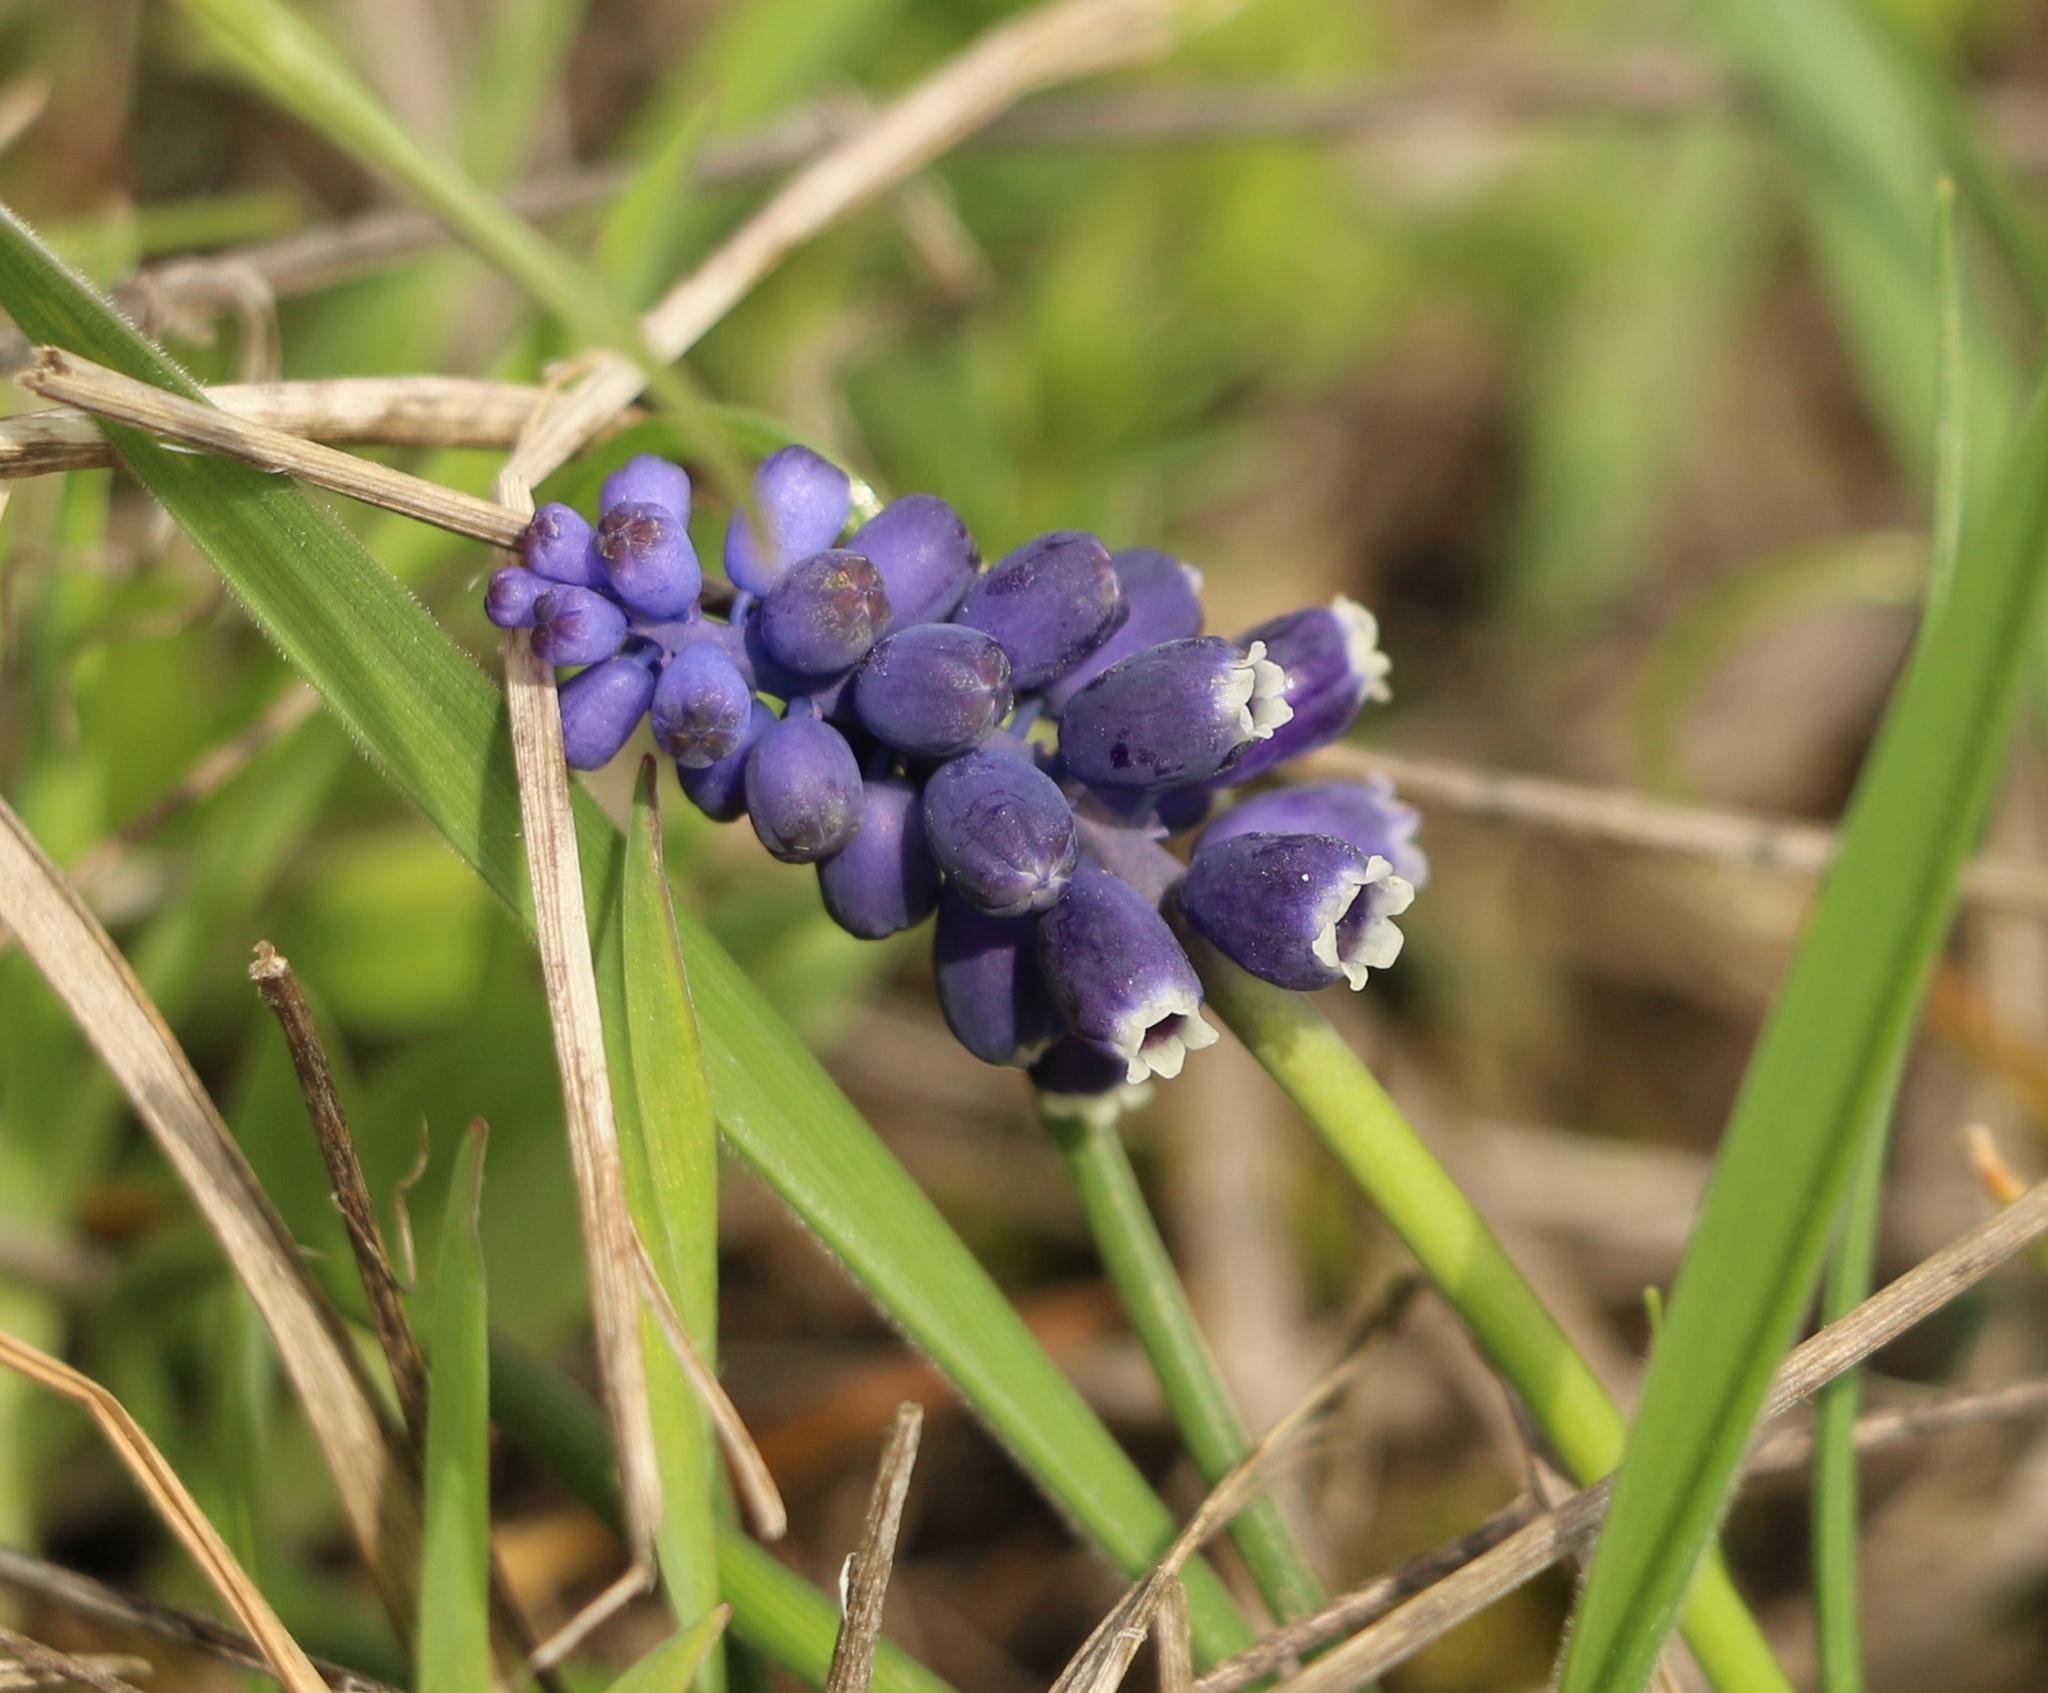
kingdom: Plantae
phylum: Tracheophyta
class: Liliopsida
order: Asparagales
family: Asparagaceae
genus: Muscari
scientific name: Muscari neglectum
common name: Grape-hyacinth
